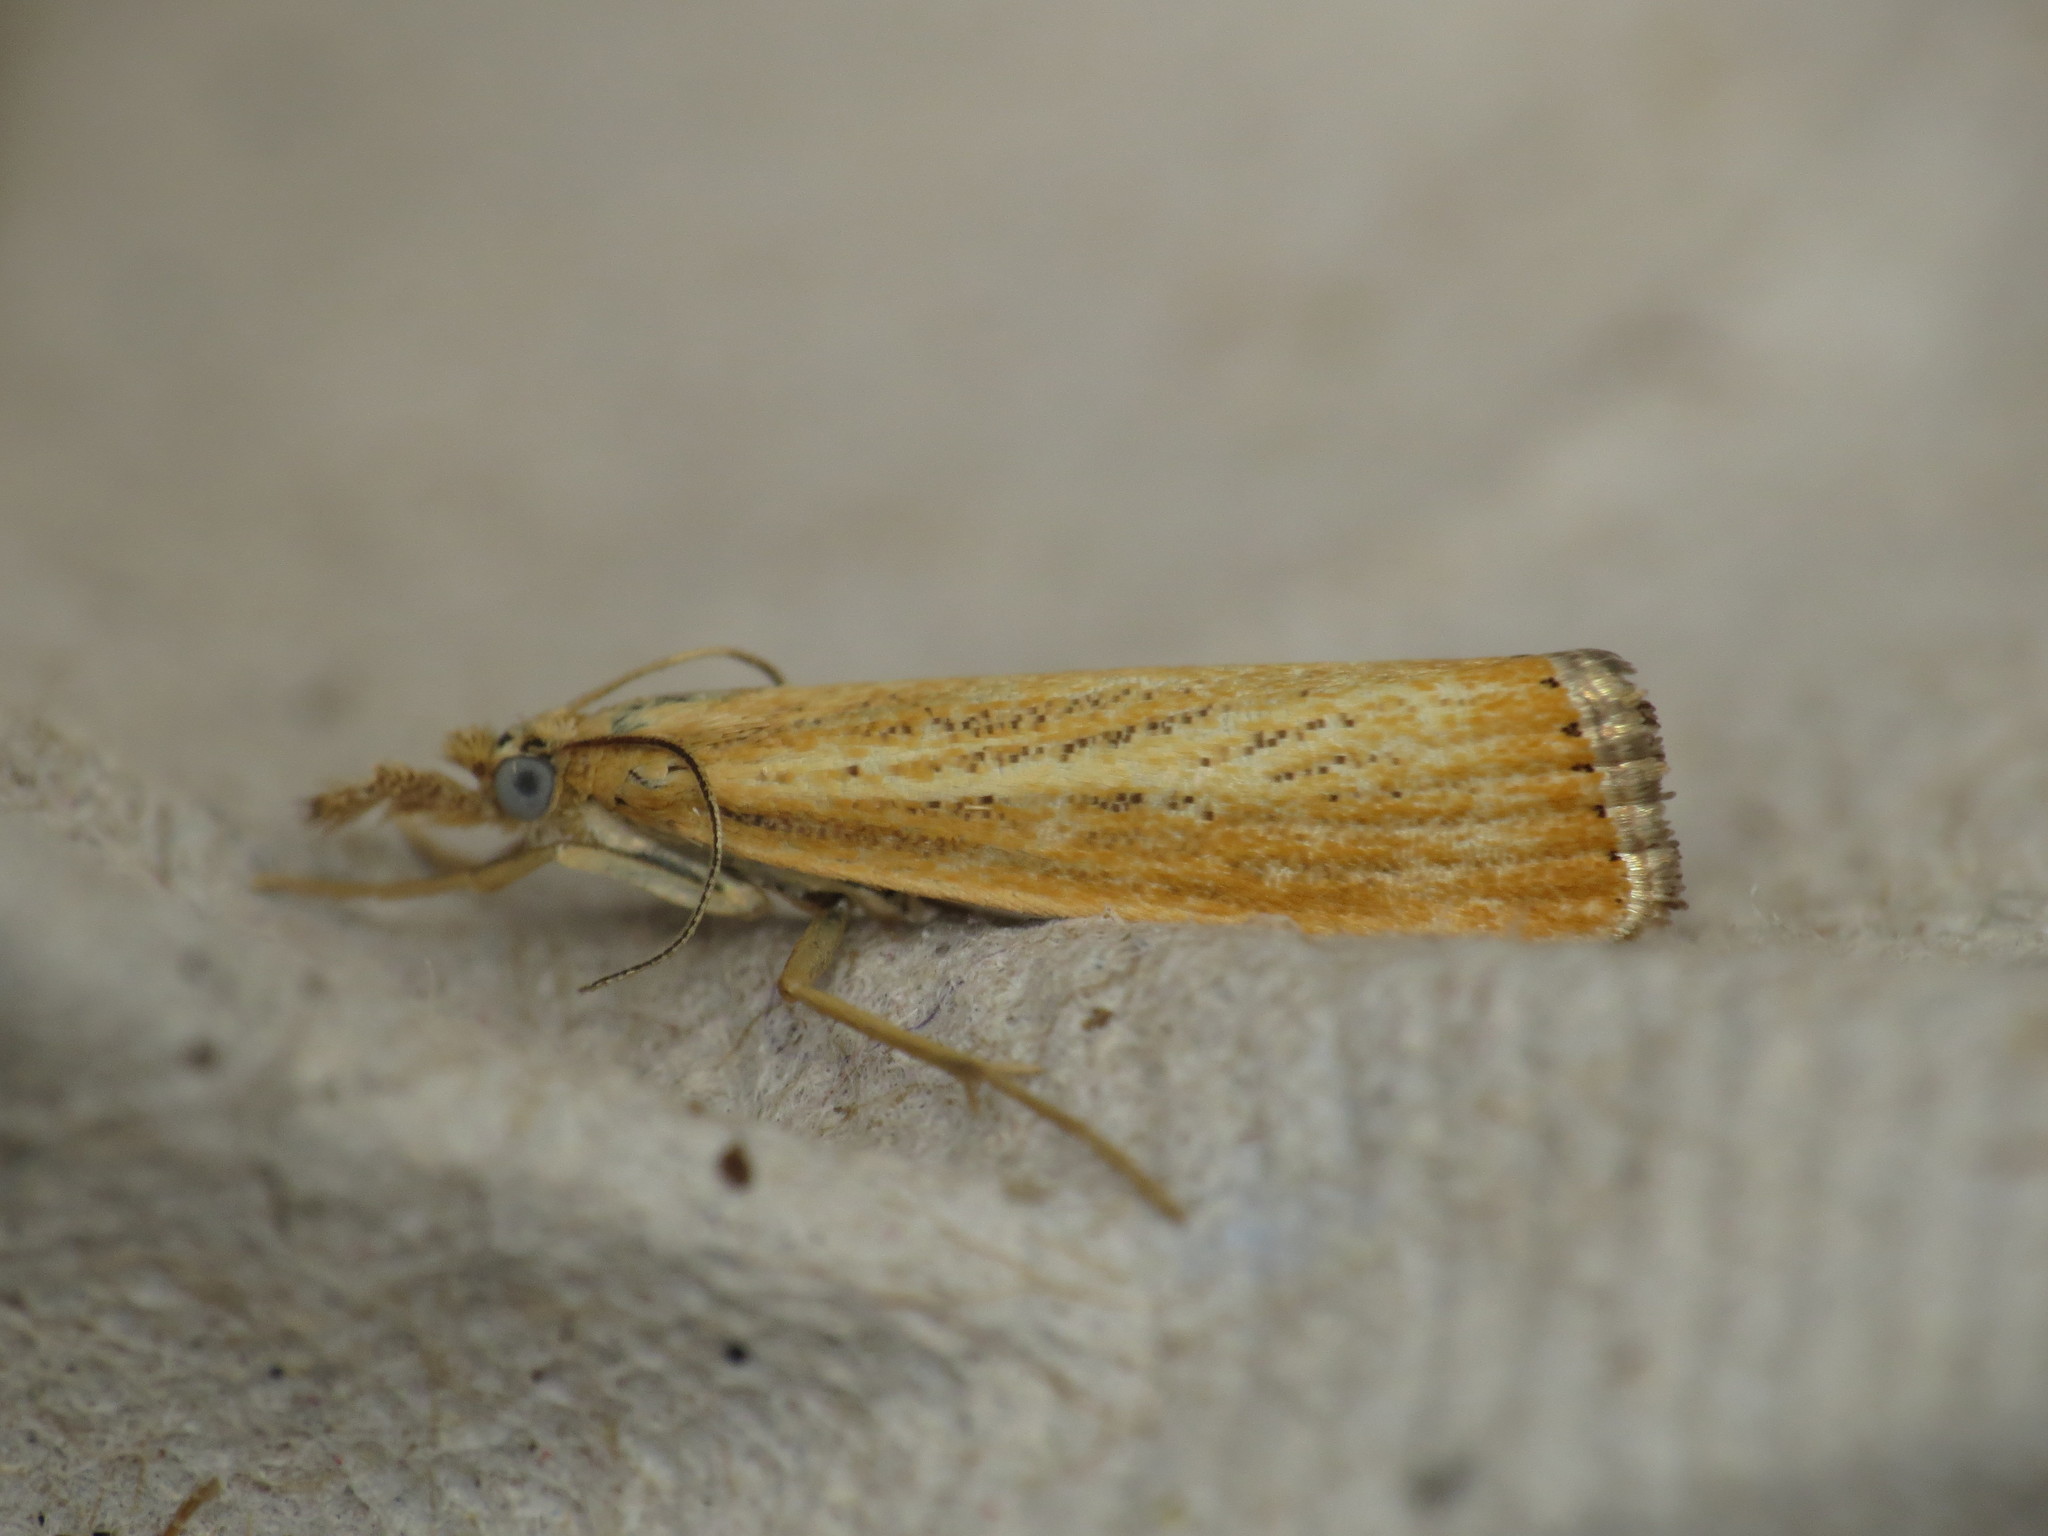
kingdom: Animalia
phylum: Arthropoda
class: Insecta
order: Lepidoptera
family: Crambidae
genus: Agriphila
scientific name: Agriphila straminella
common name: Straw grass-veneer
